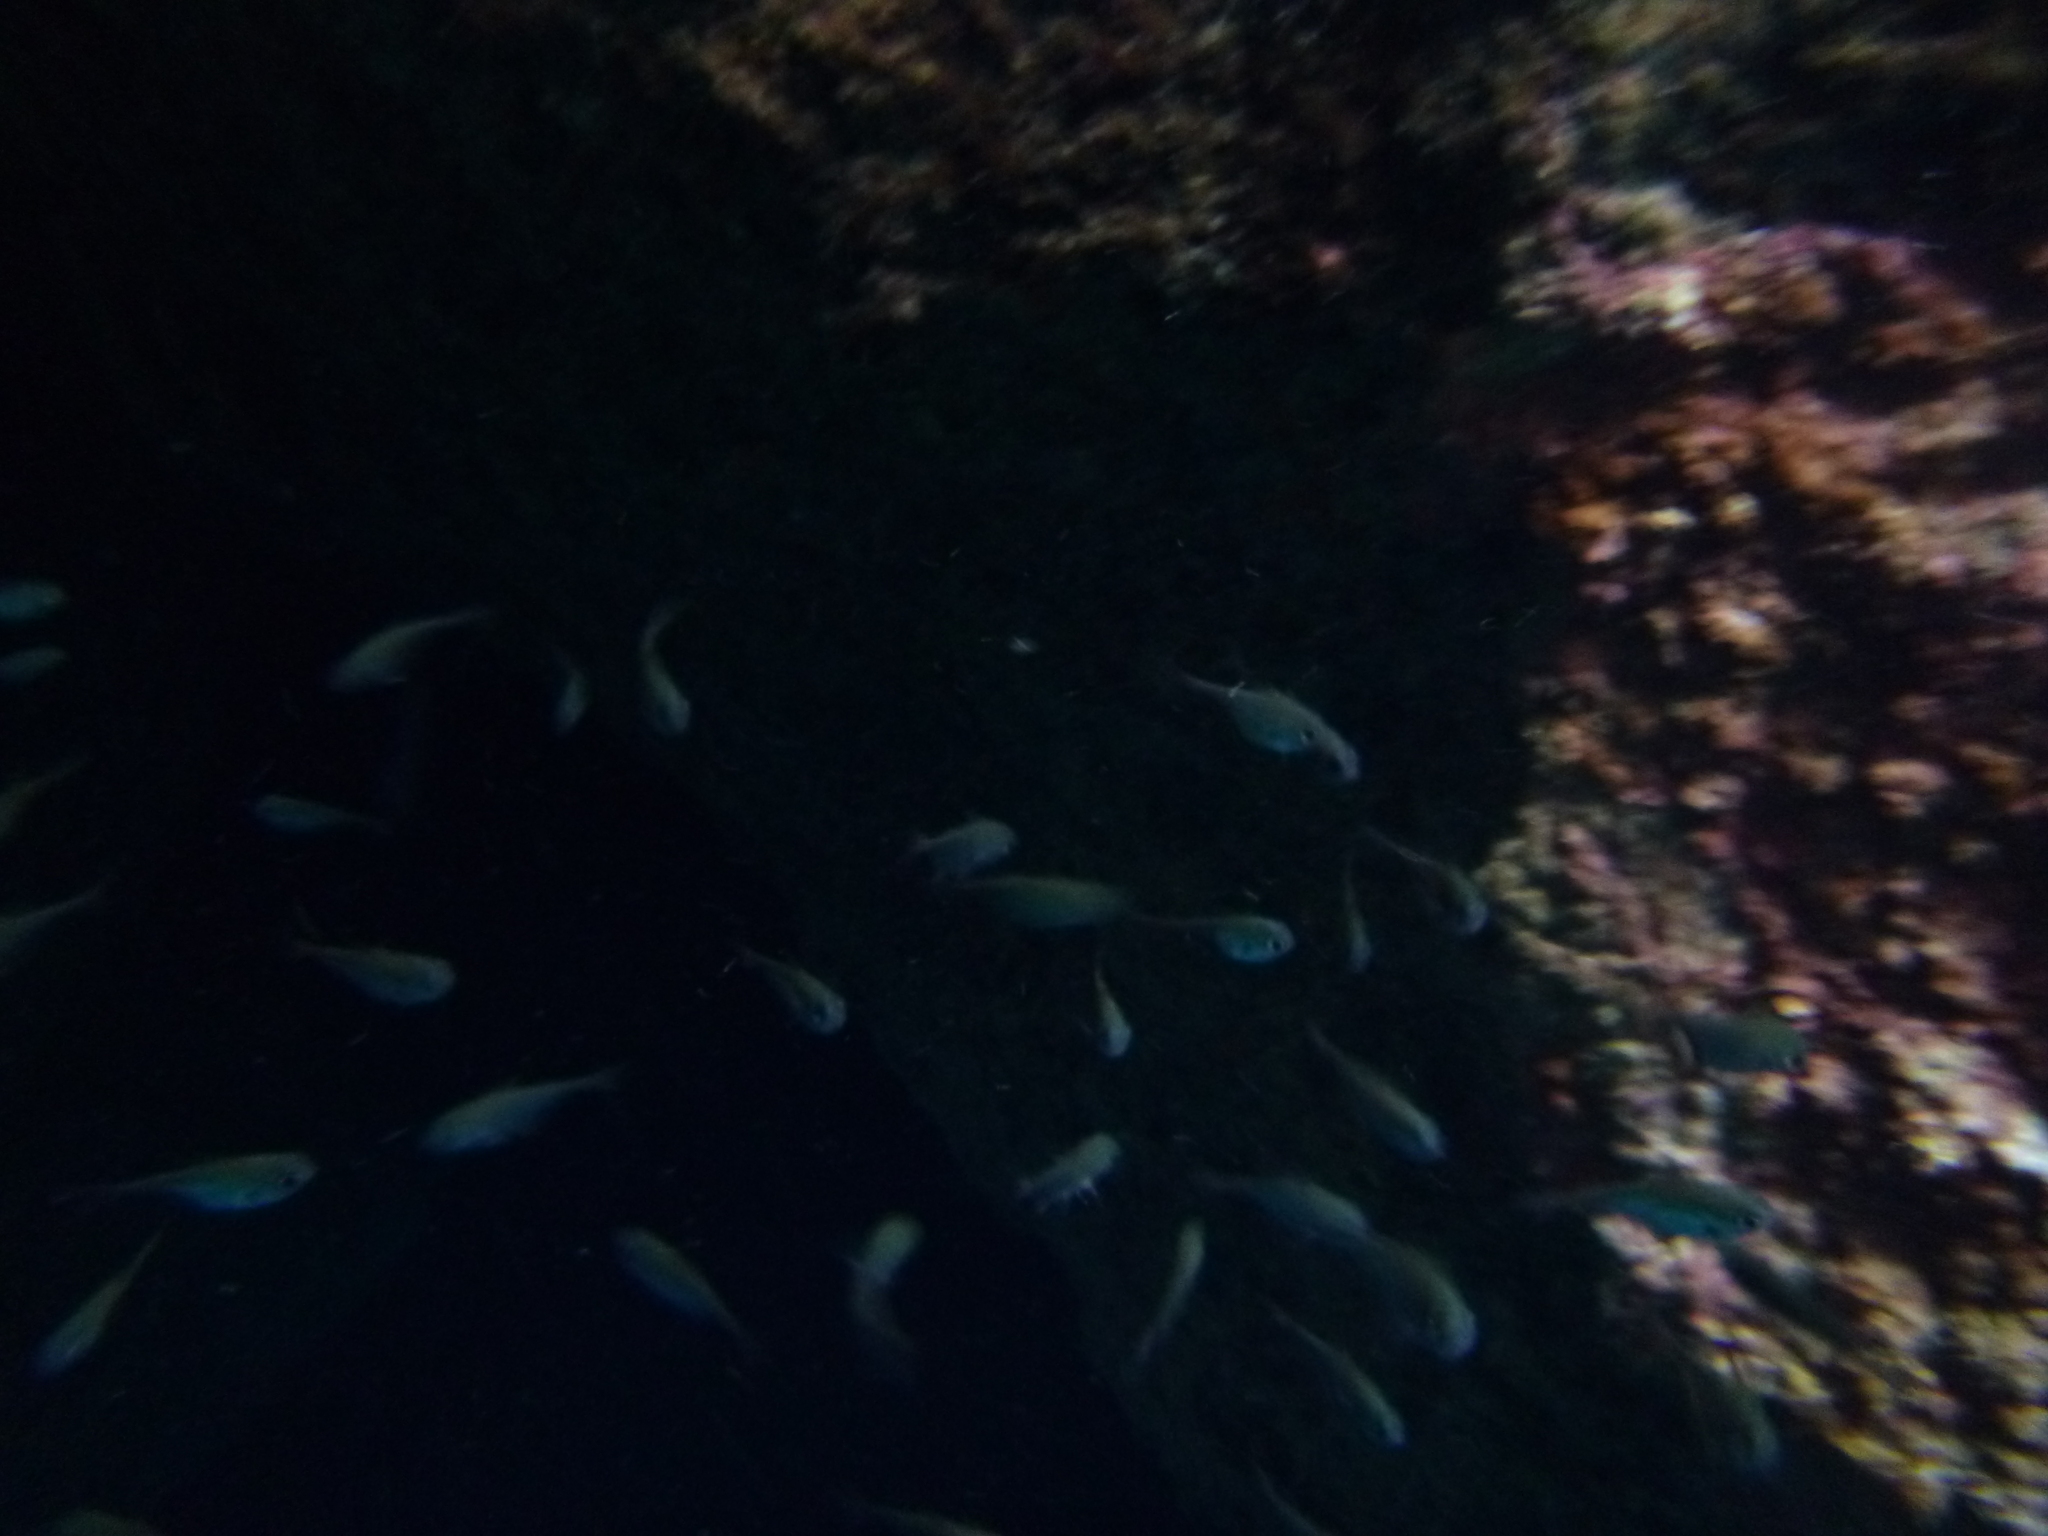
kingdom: Animalia
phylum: Chordata
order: Perciformes
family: Pempheridae
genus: Pempheris
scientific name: Pempheris rhomboidea
